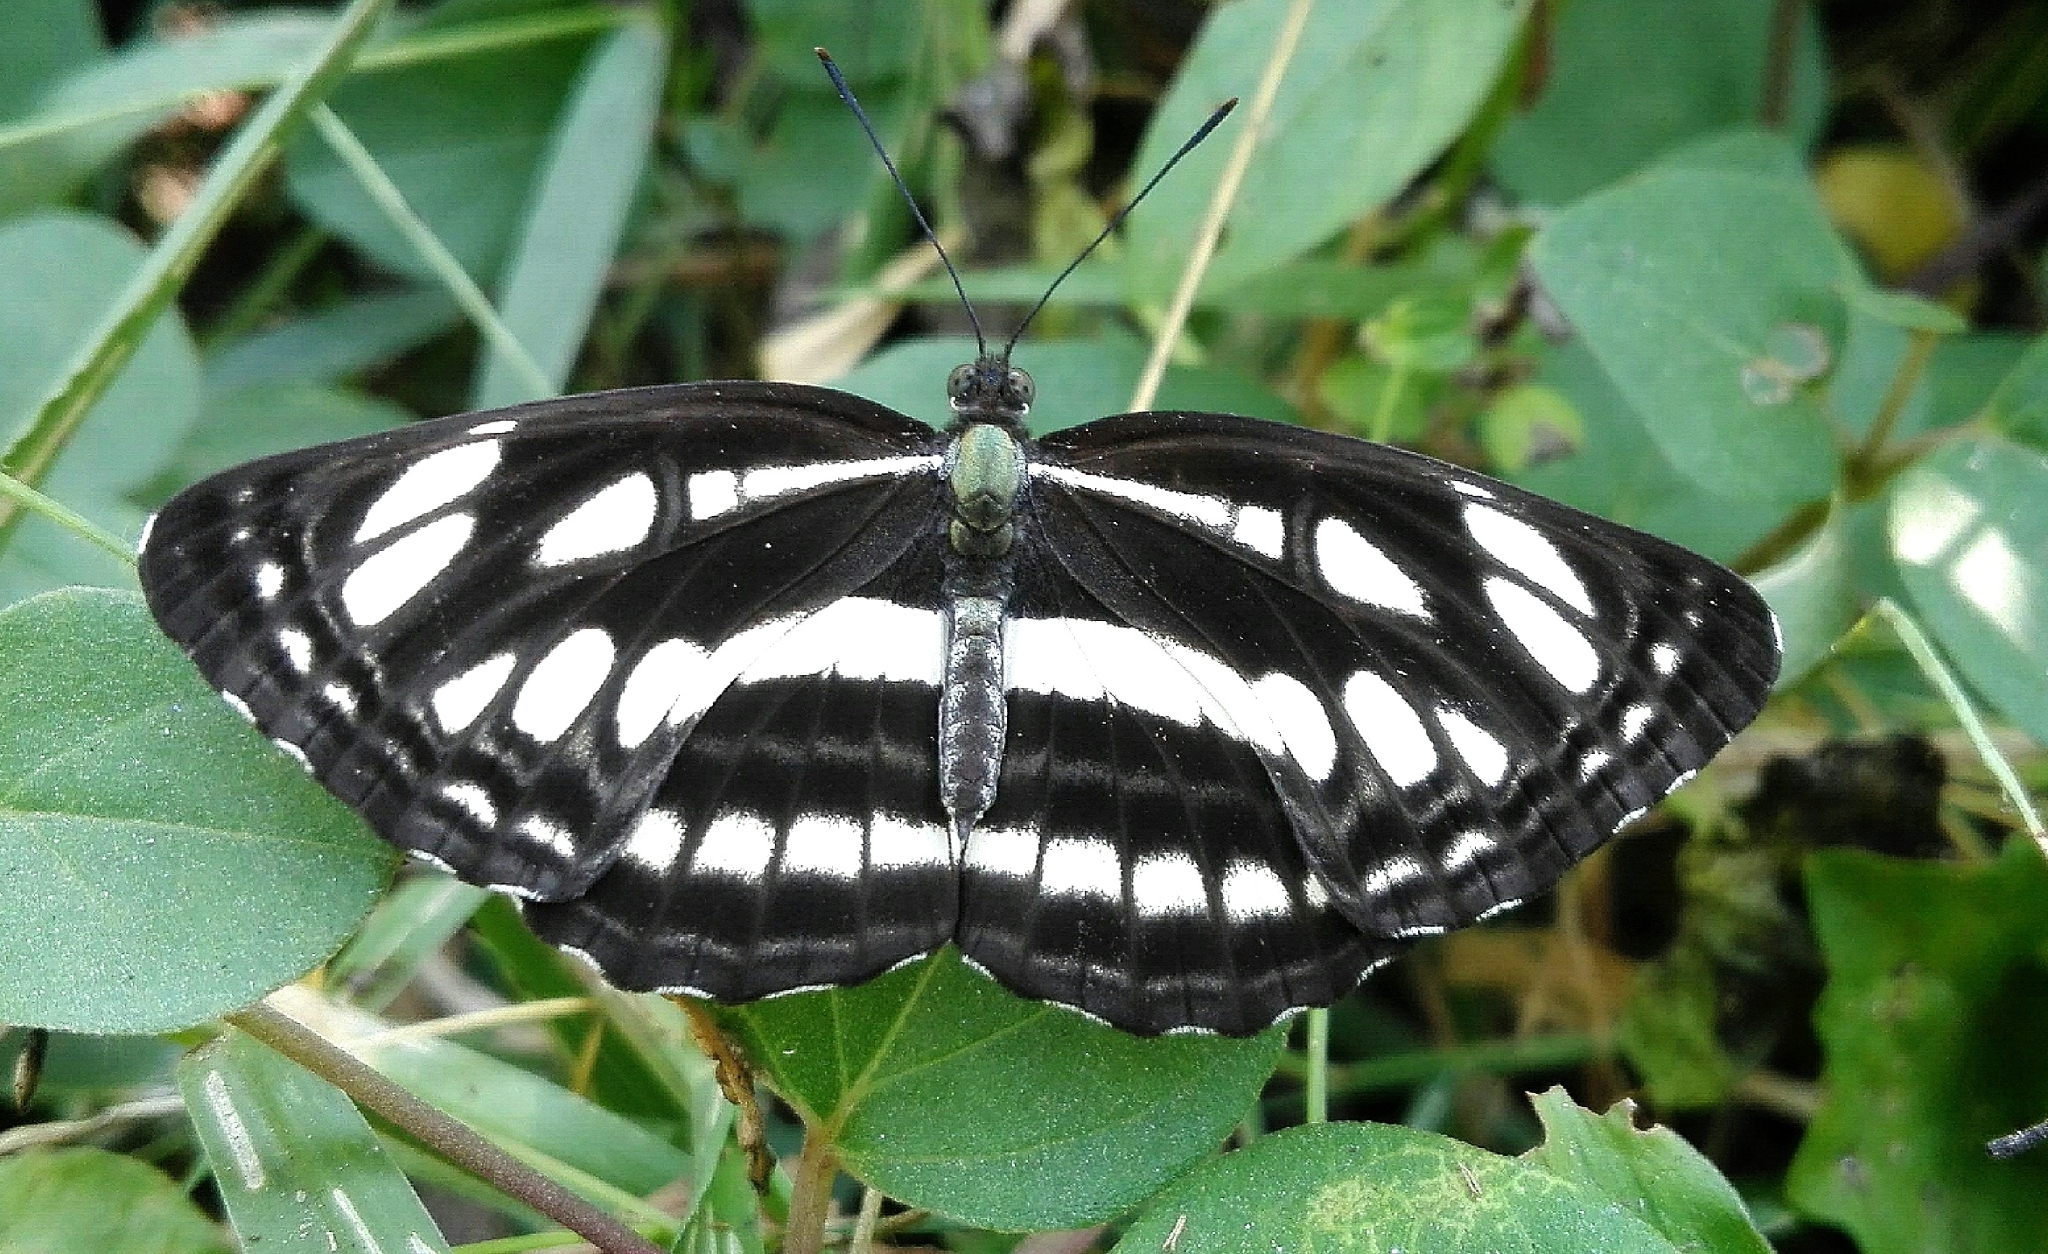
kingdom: Animalia
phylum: Arthropoda
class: Insecta
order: Lepidoptera
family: Nymphalidae
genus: Neptis
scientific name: Neptis hylas
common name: Common sailer
